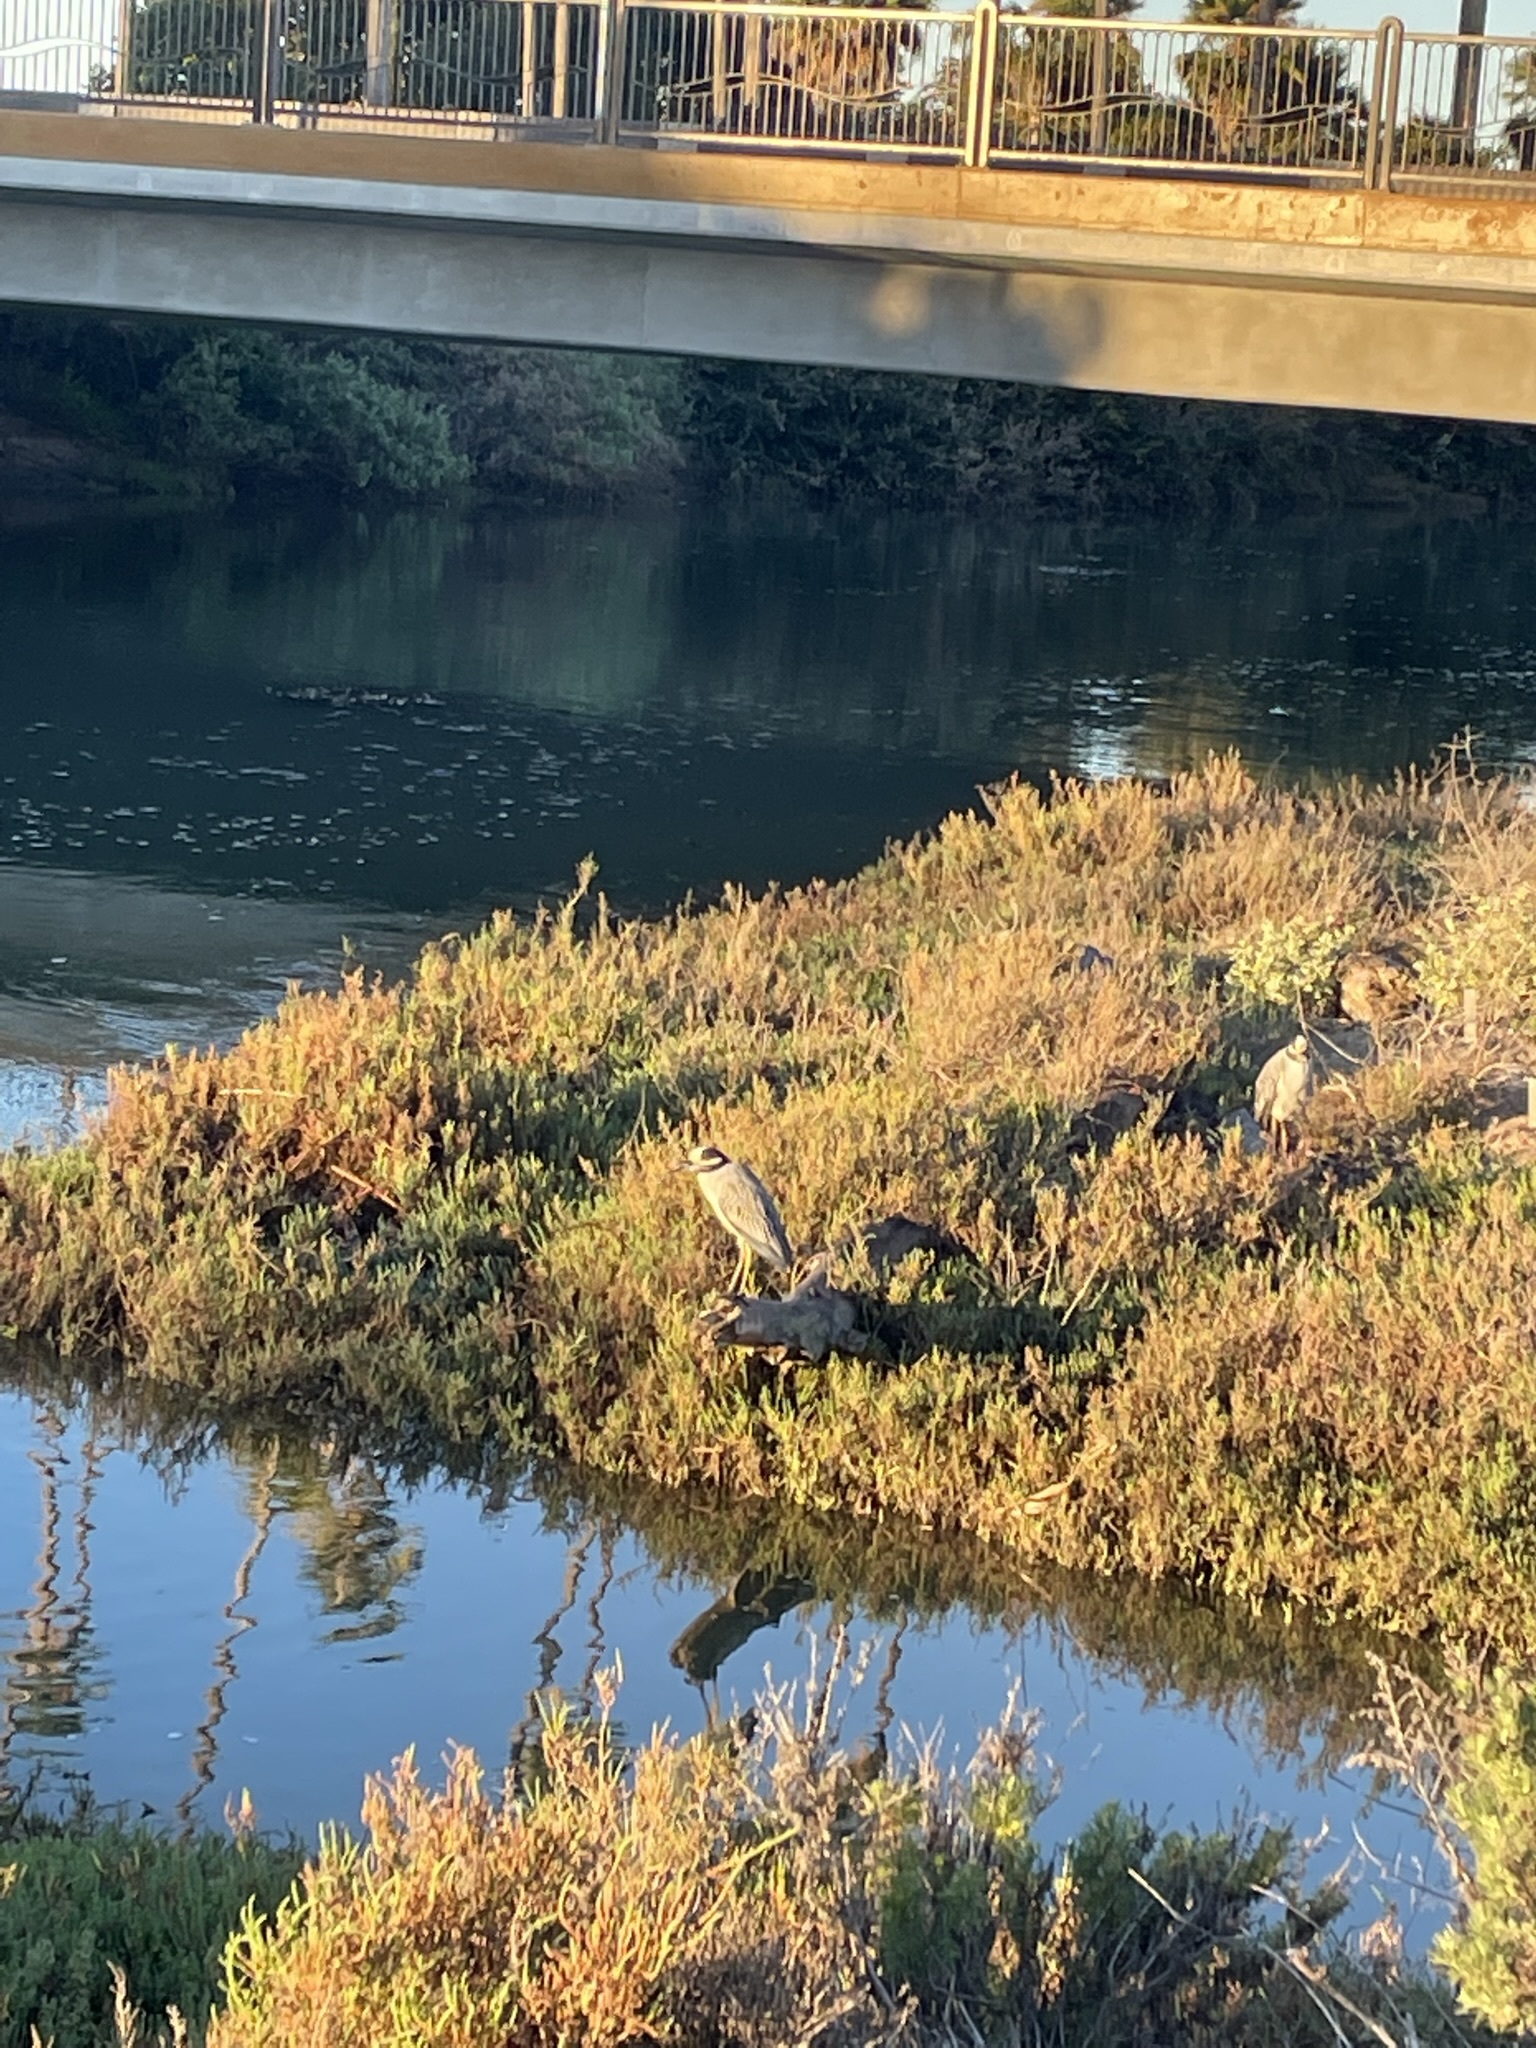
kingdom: Animalia
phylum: Chordata
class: Aves
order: Pelecaniformes
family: Ardeidae
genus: Nyctanassa
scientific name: Nyctanassa violacea
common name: Yellow-crowned night heron
